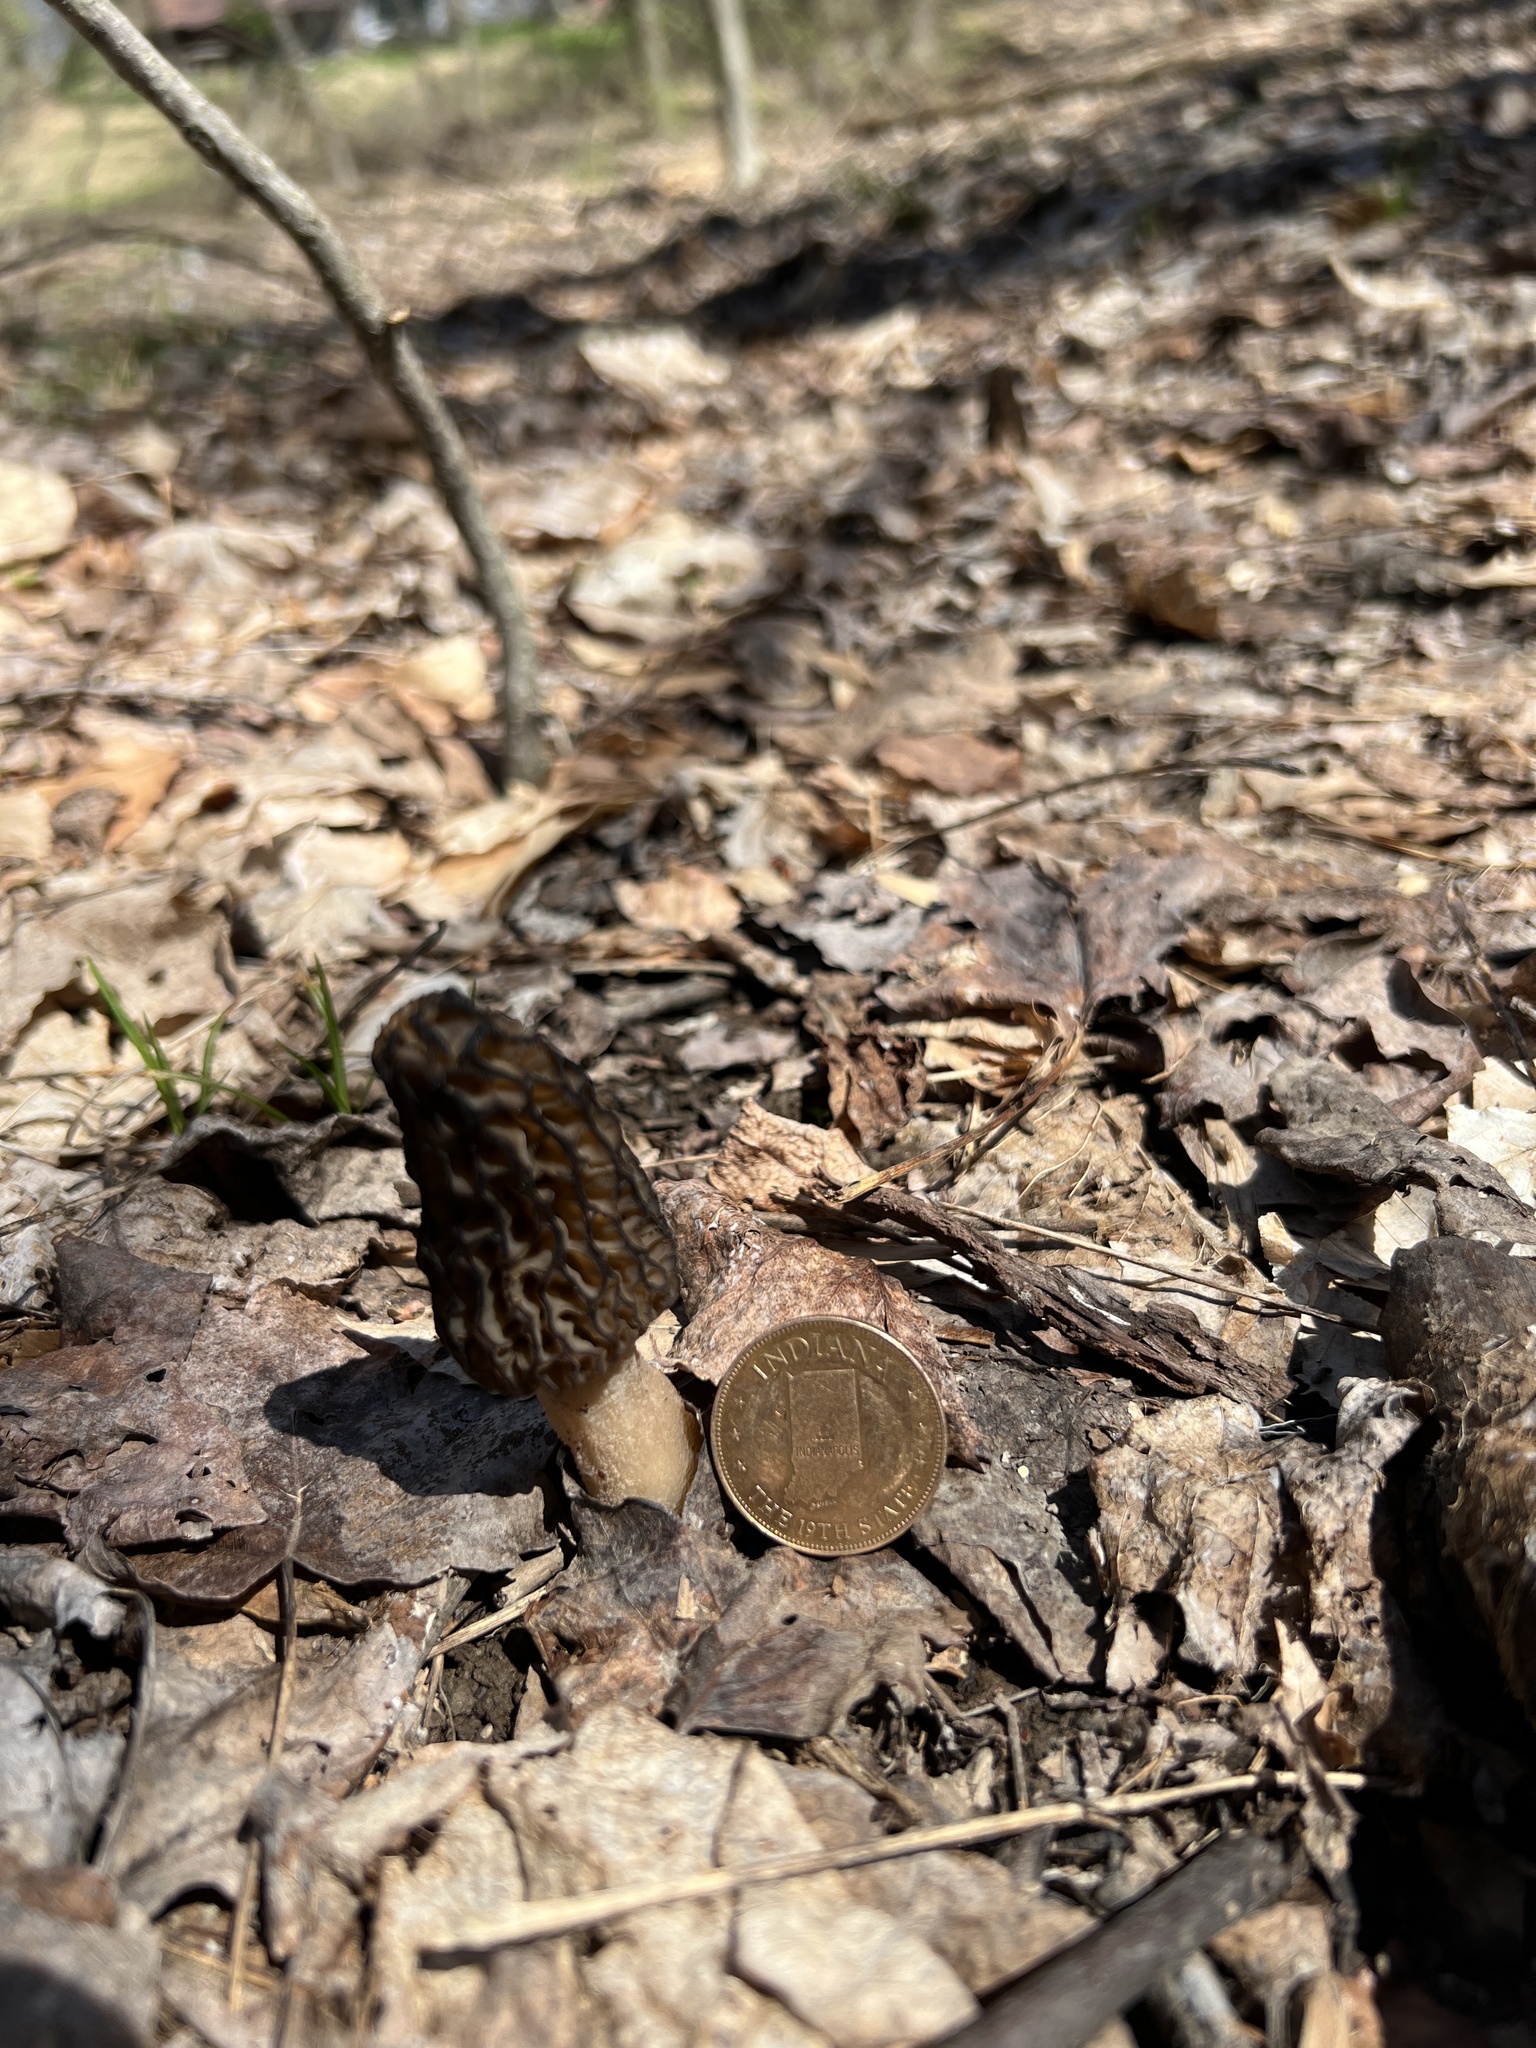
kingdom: Fungi
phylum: Ascomycota
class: Pezizomycetes
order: Pezizales
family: Morchellaceae
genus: Morchella
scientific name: Morchella angusticeps
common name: Black morel
